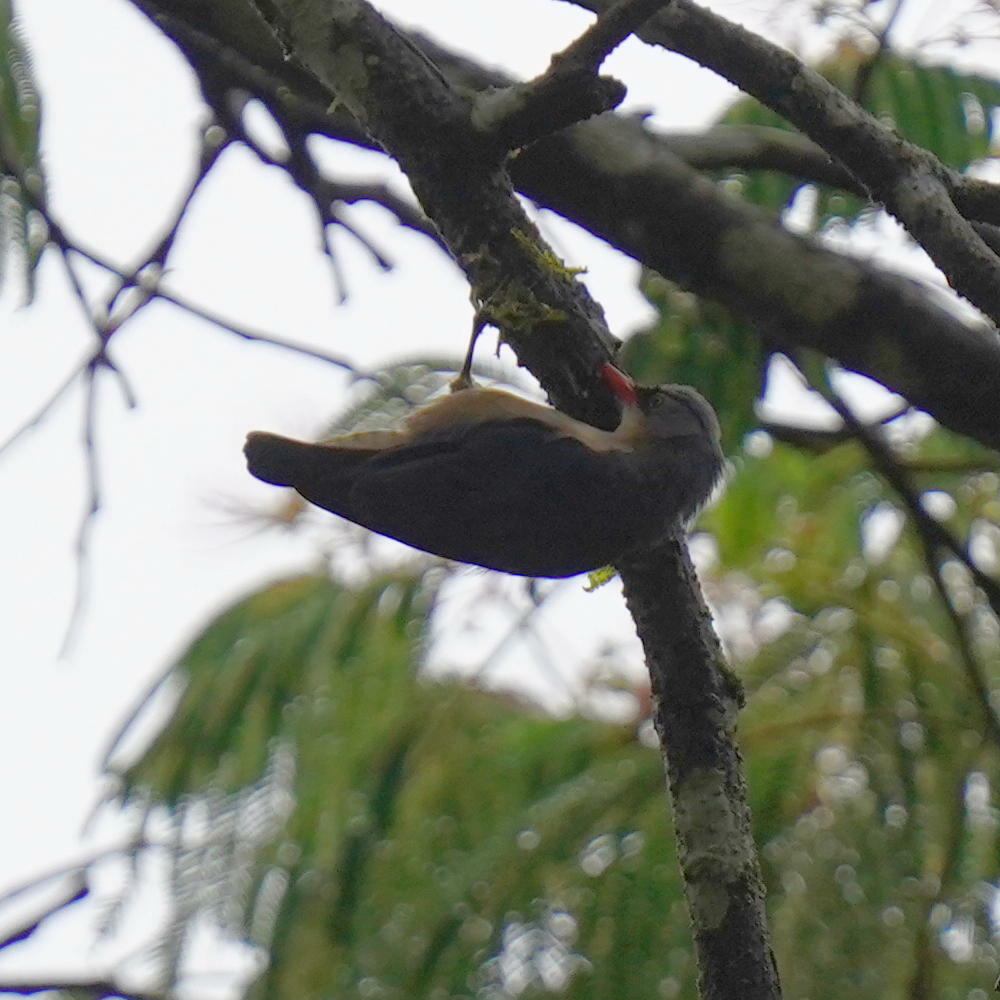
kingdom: Animalia
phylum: Chordata
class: Aves
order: Passeriformes
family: Sittidae
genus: Sitta
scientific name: Sitta frontalis
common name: Velvet-fronted nuthatch
